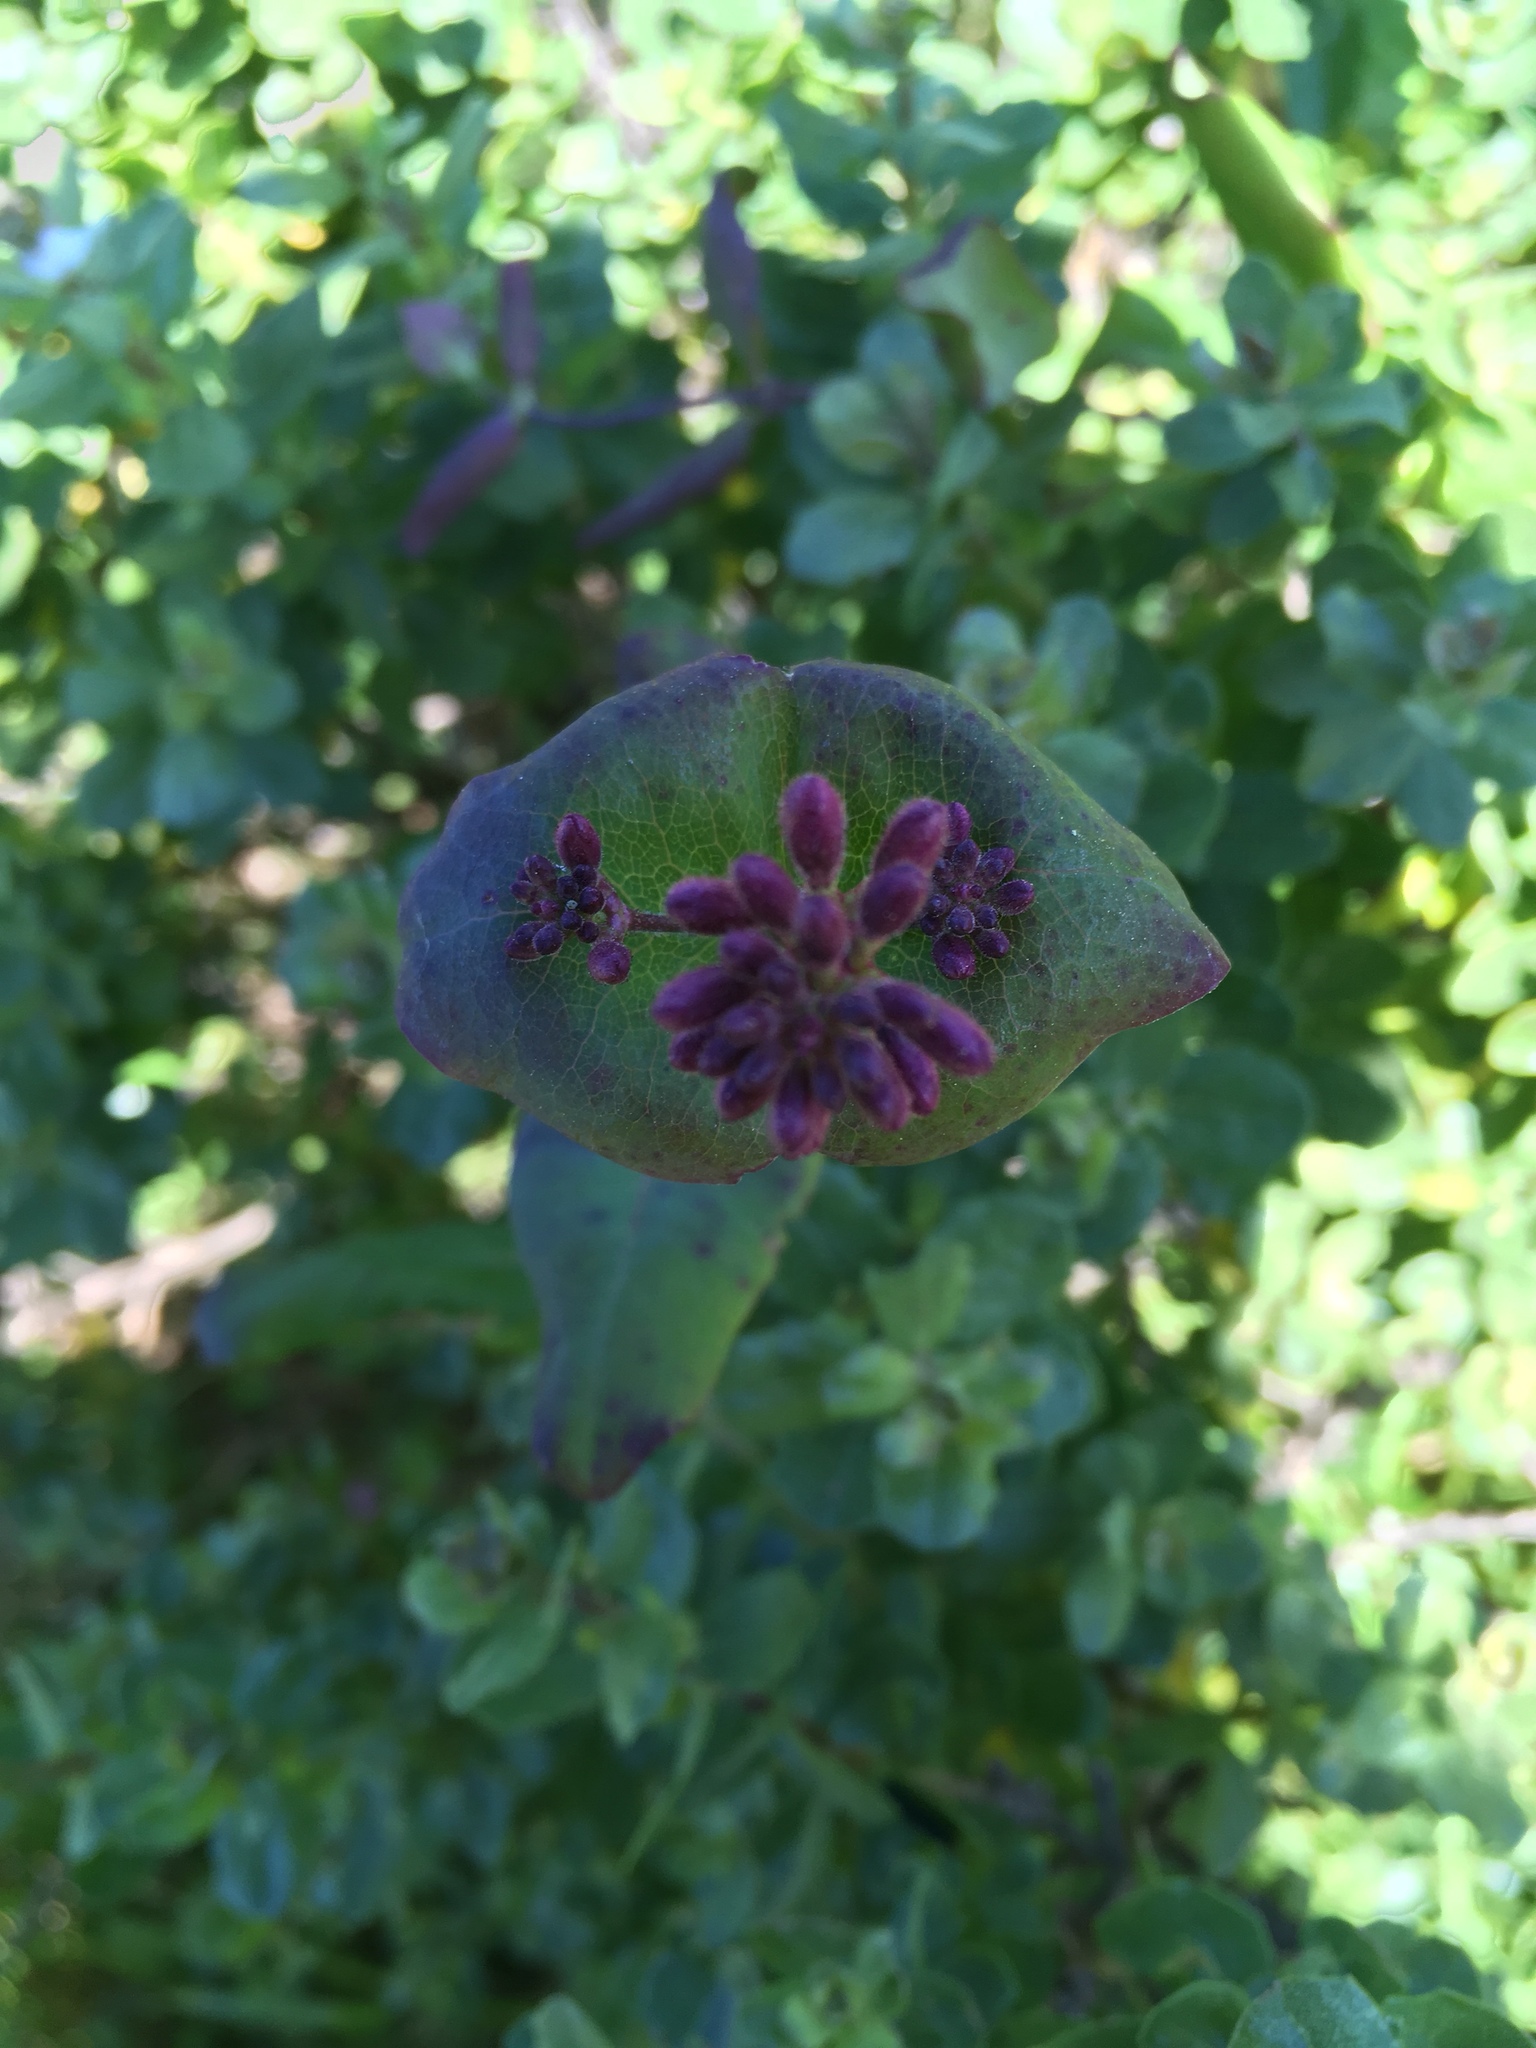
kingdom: Plantae
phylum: Tracheophyta
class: Magnoliopsida
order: Dipsacales
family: Caprifoliaceae
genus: Lonicera
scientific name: Lonicera hispidula
